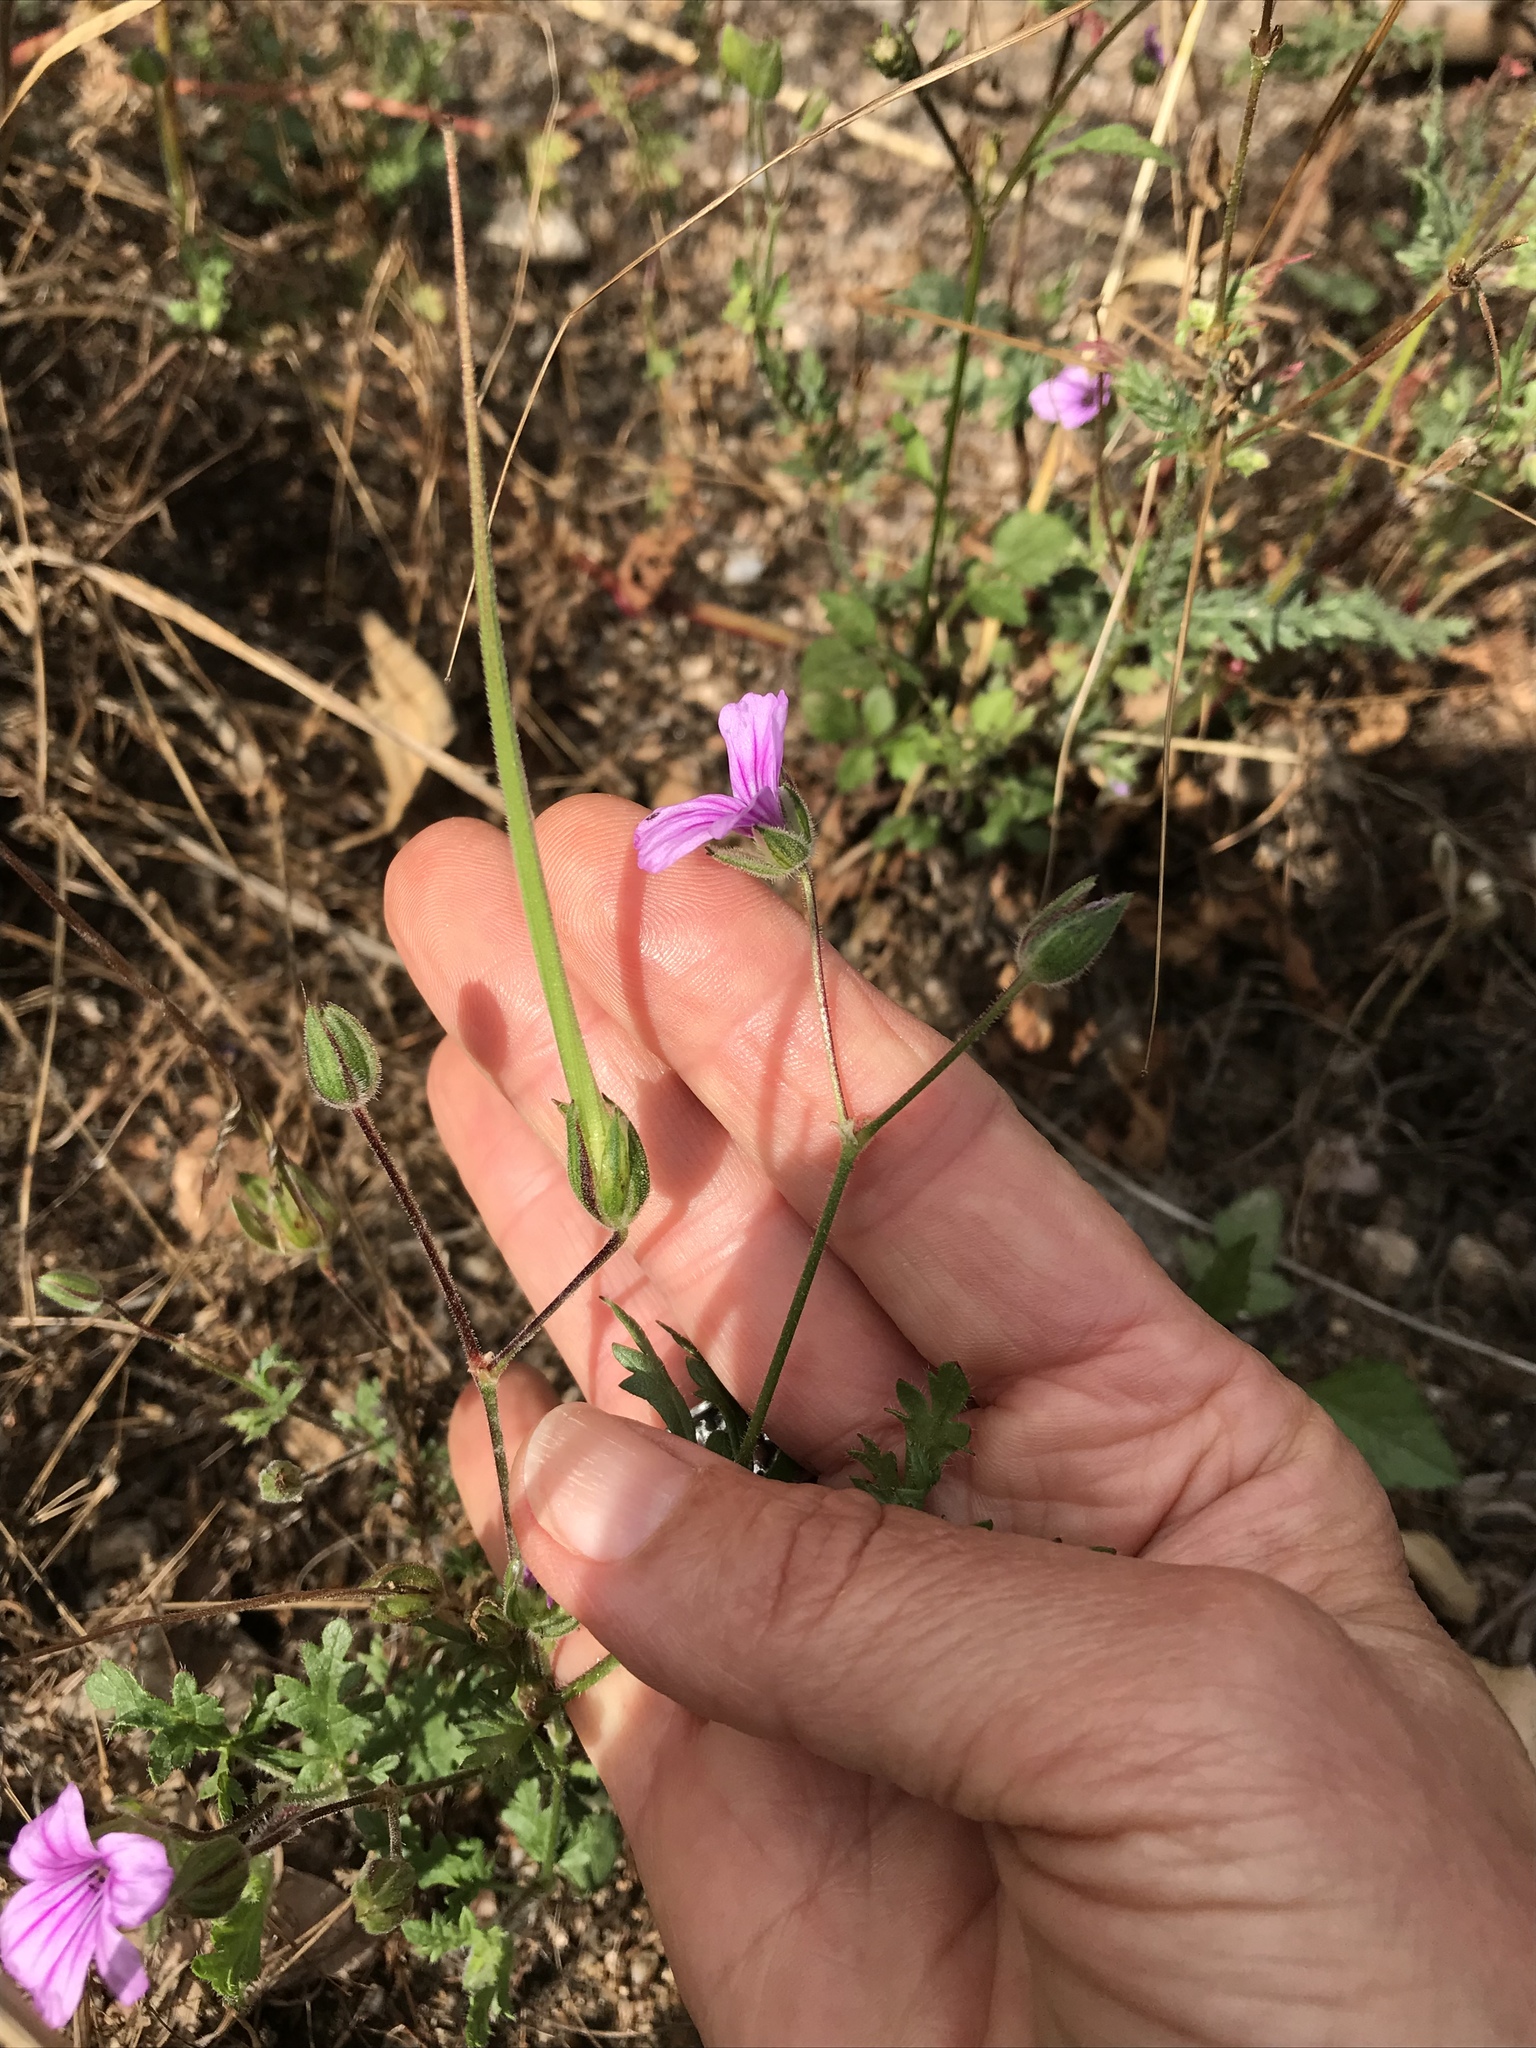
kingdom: Plantae
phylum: Tracheophyta
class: Magnoliopsida
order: Geraniales
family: Geraniaceae
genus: Erodium
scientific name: Erodium botrys
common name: Mediterranean stork's-bill
